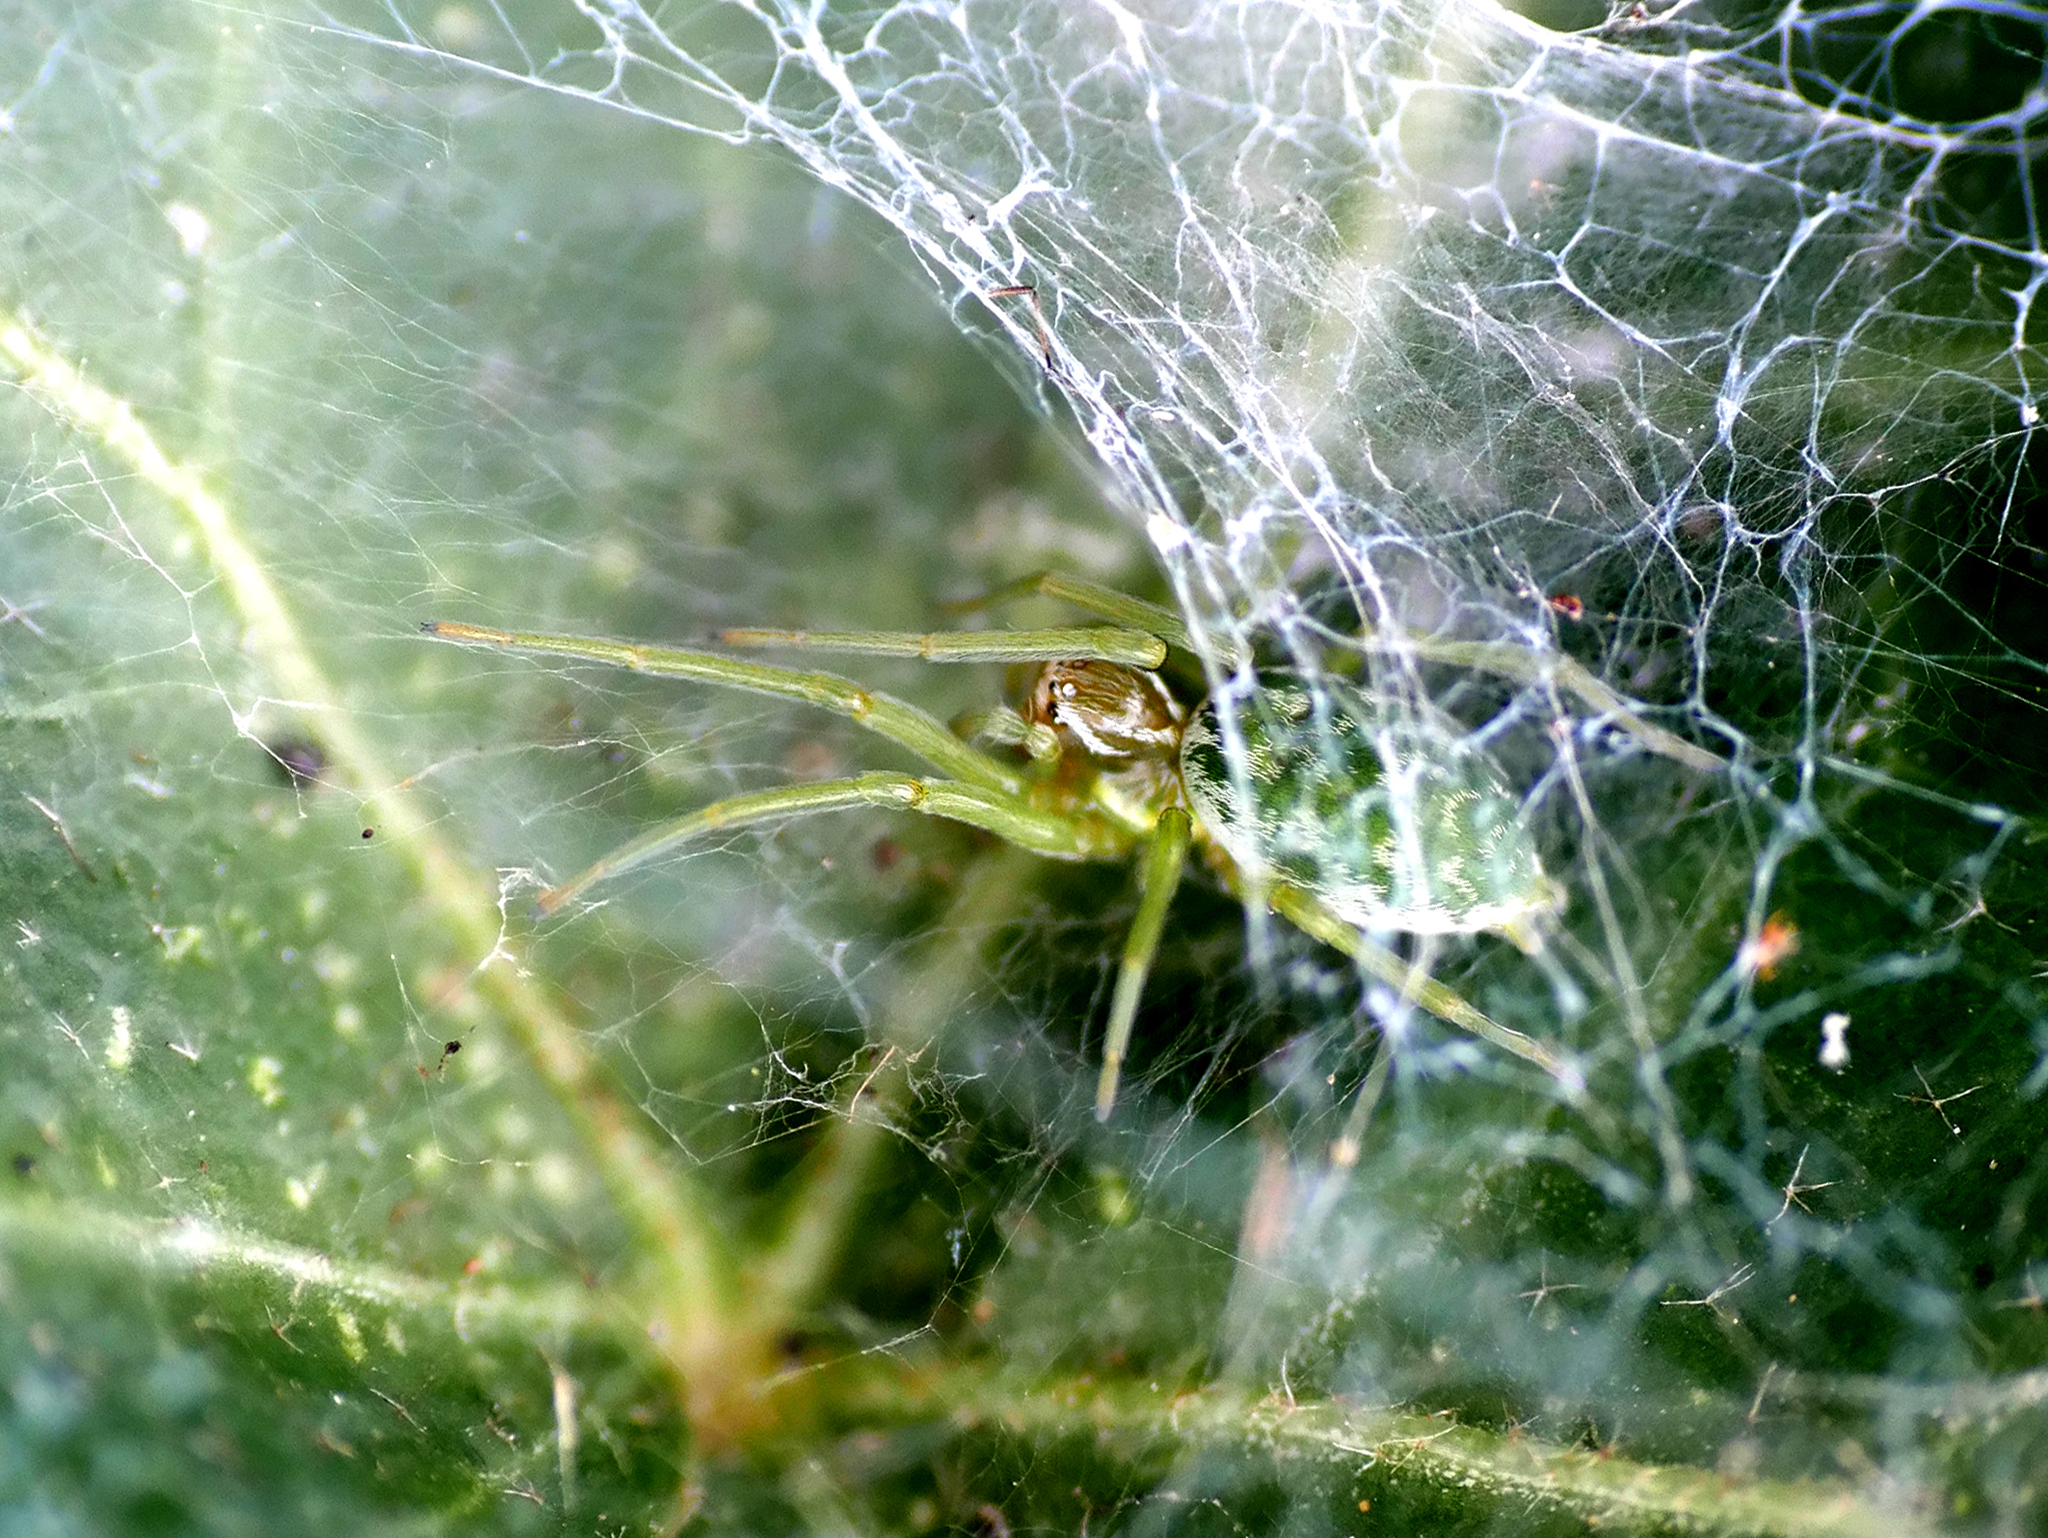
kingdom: Animalia
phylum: Arthropoda
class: Arachnida
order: Araneae
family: Dictynidae
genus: Nigma
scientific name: Nigma walckenaeri
